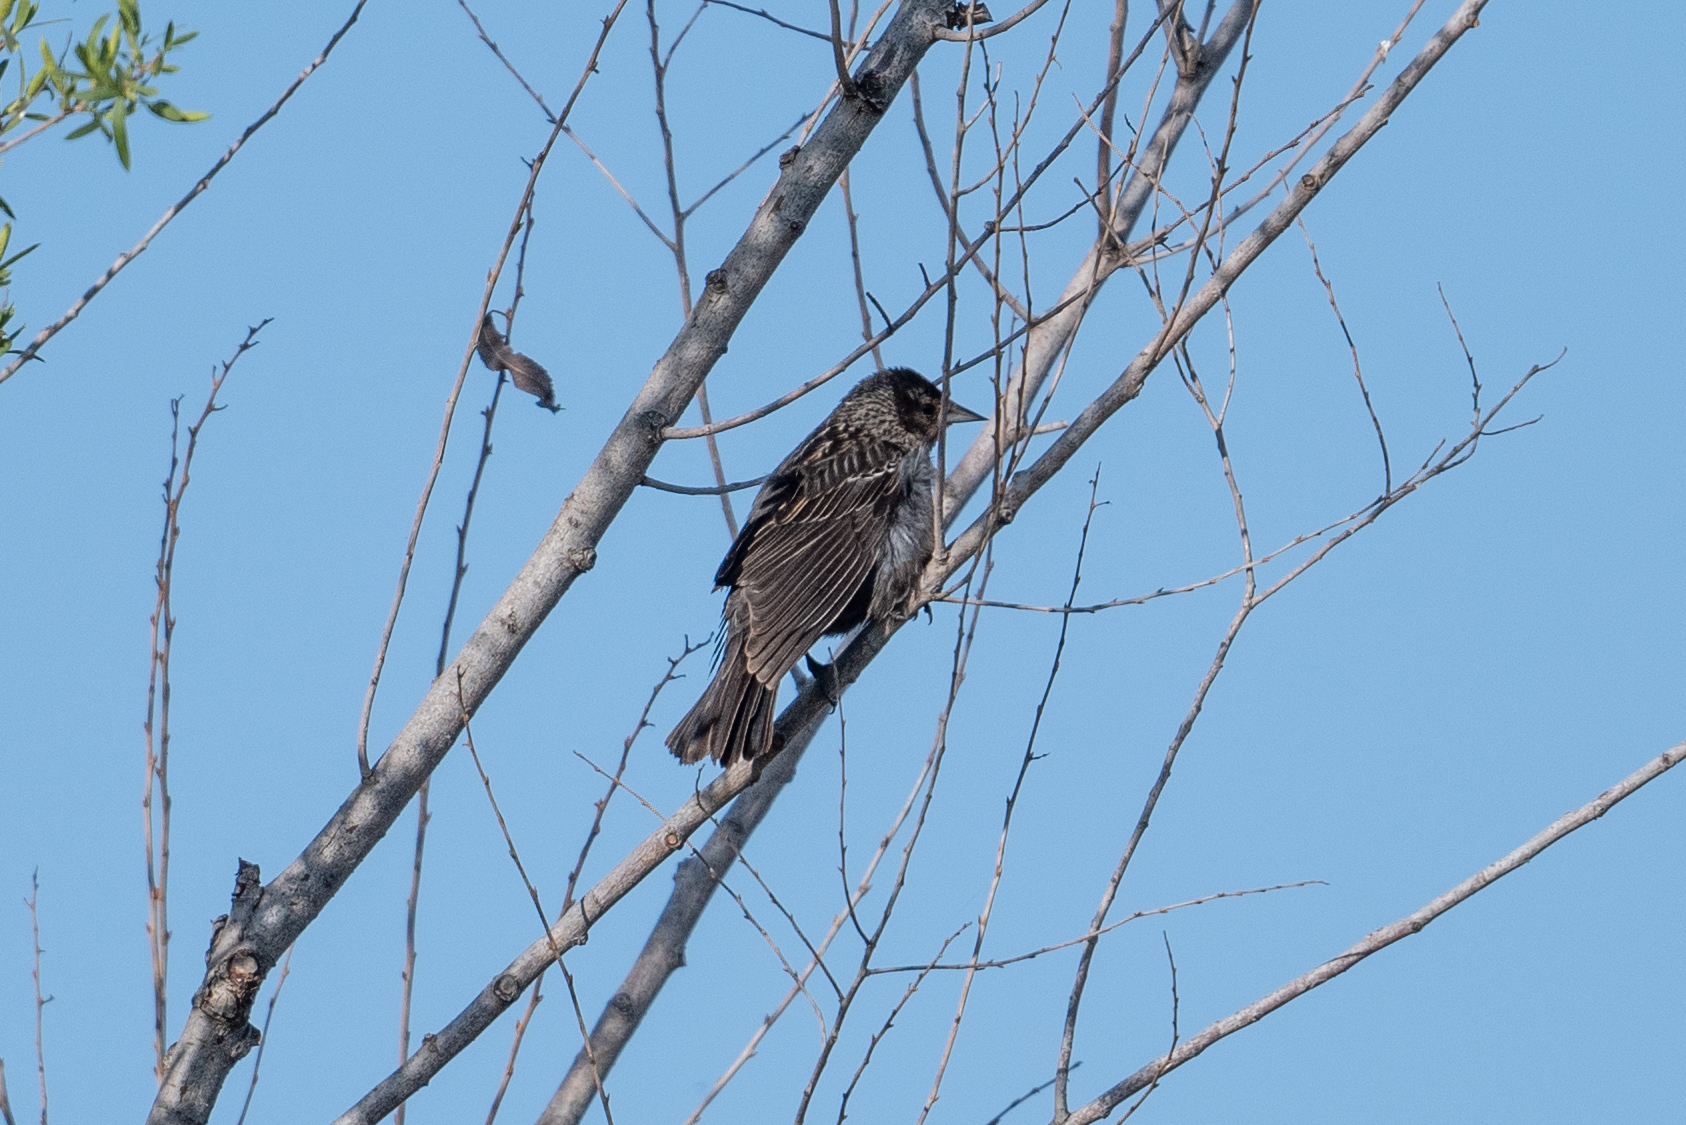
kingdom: Animalia
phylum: Chordata
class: Aves
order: Passeriformes
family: Icteridae
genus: Agelaius
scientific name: Agelaius phoeniceus
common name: Red-winged blackbird
